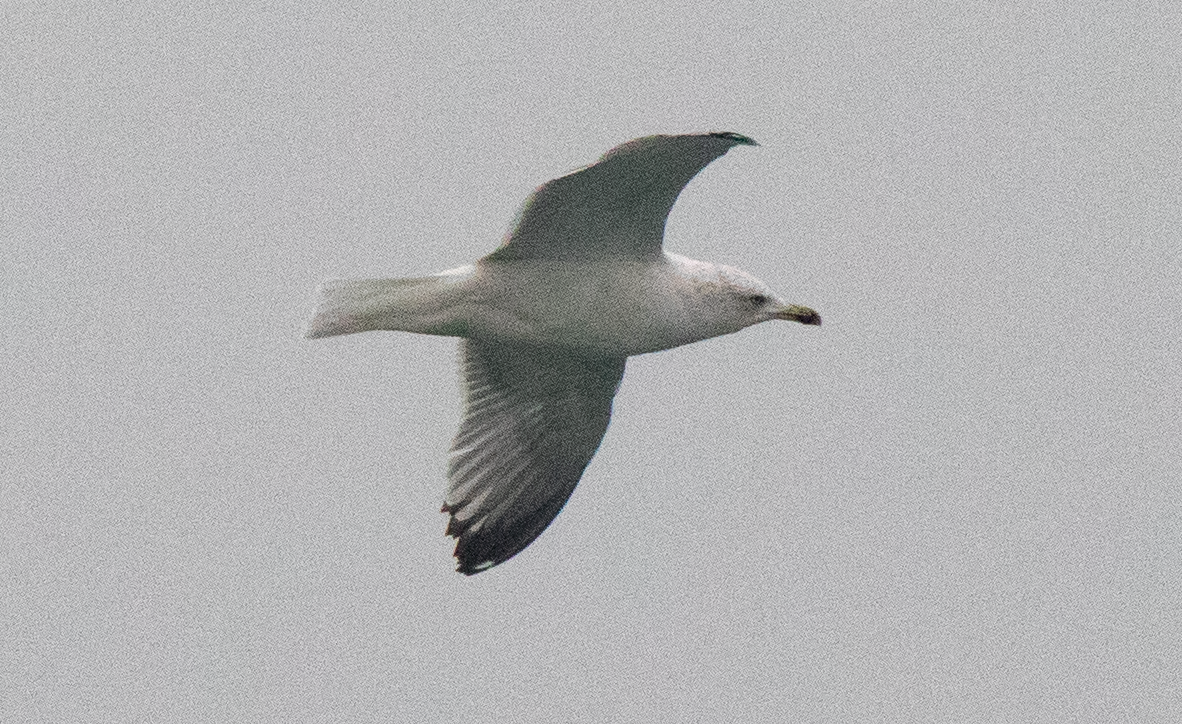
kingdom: Animalia
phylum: Chordata
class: Aves
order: Charadriiformes
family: Laridae
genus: Larus
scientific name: Larus michahellis
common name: Yellow-legged gull
